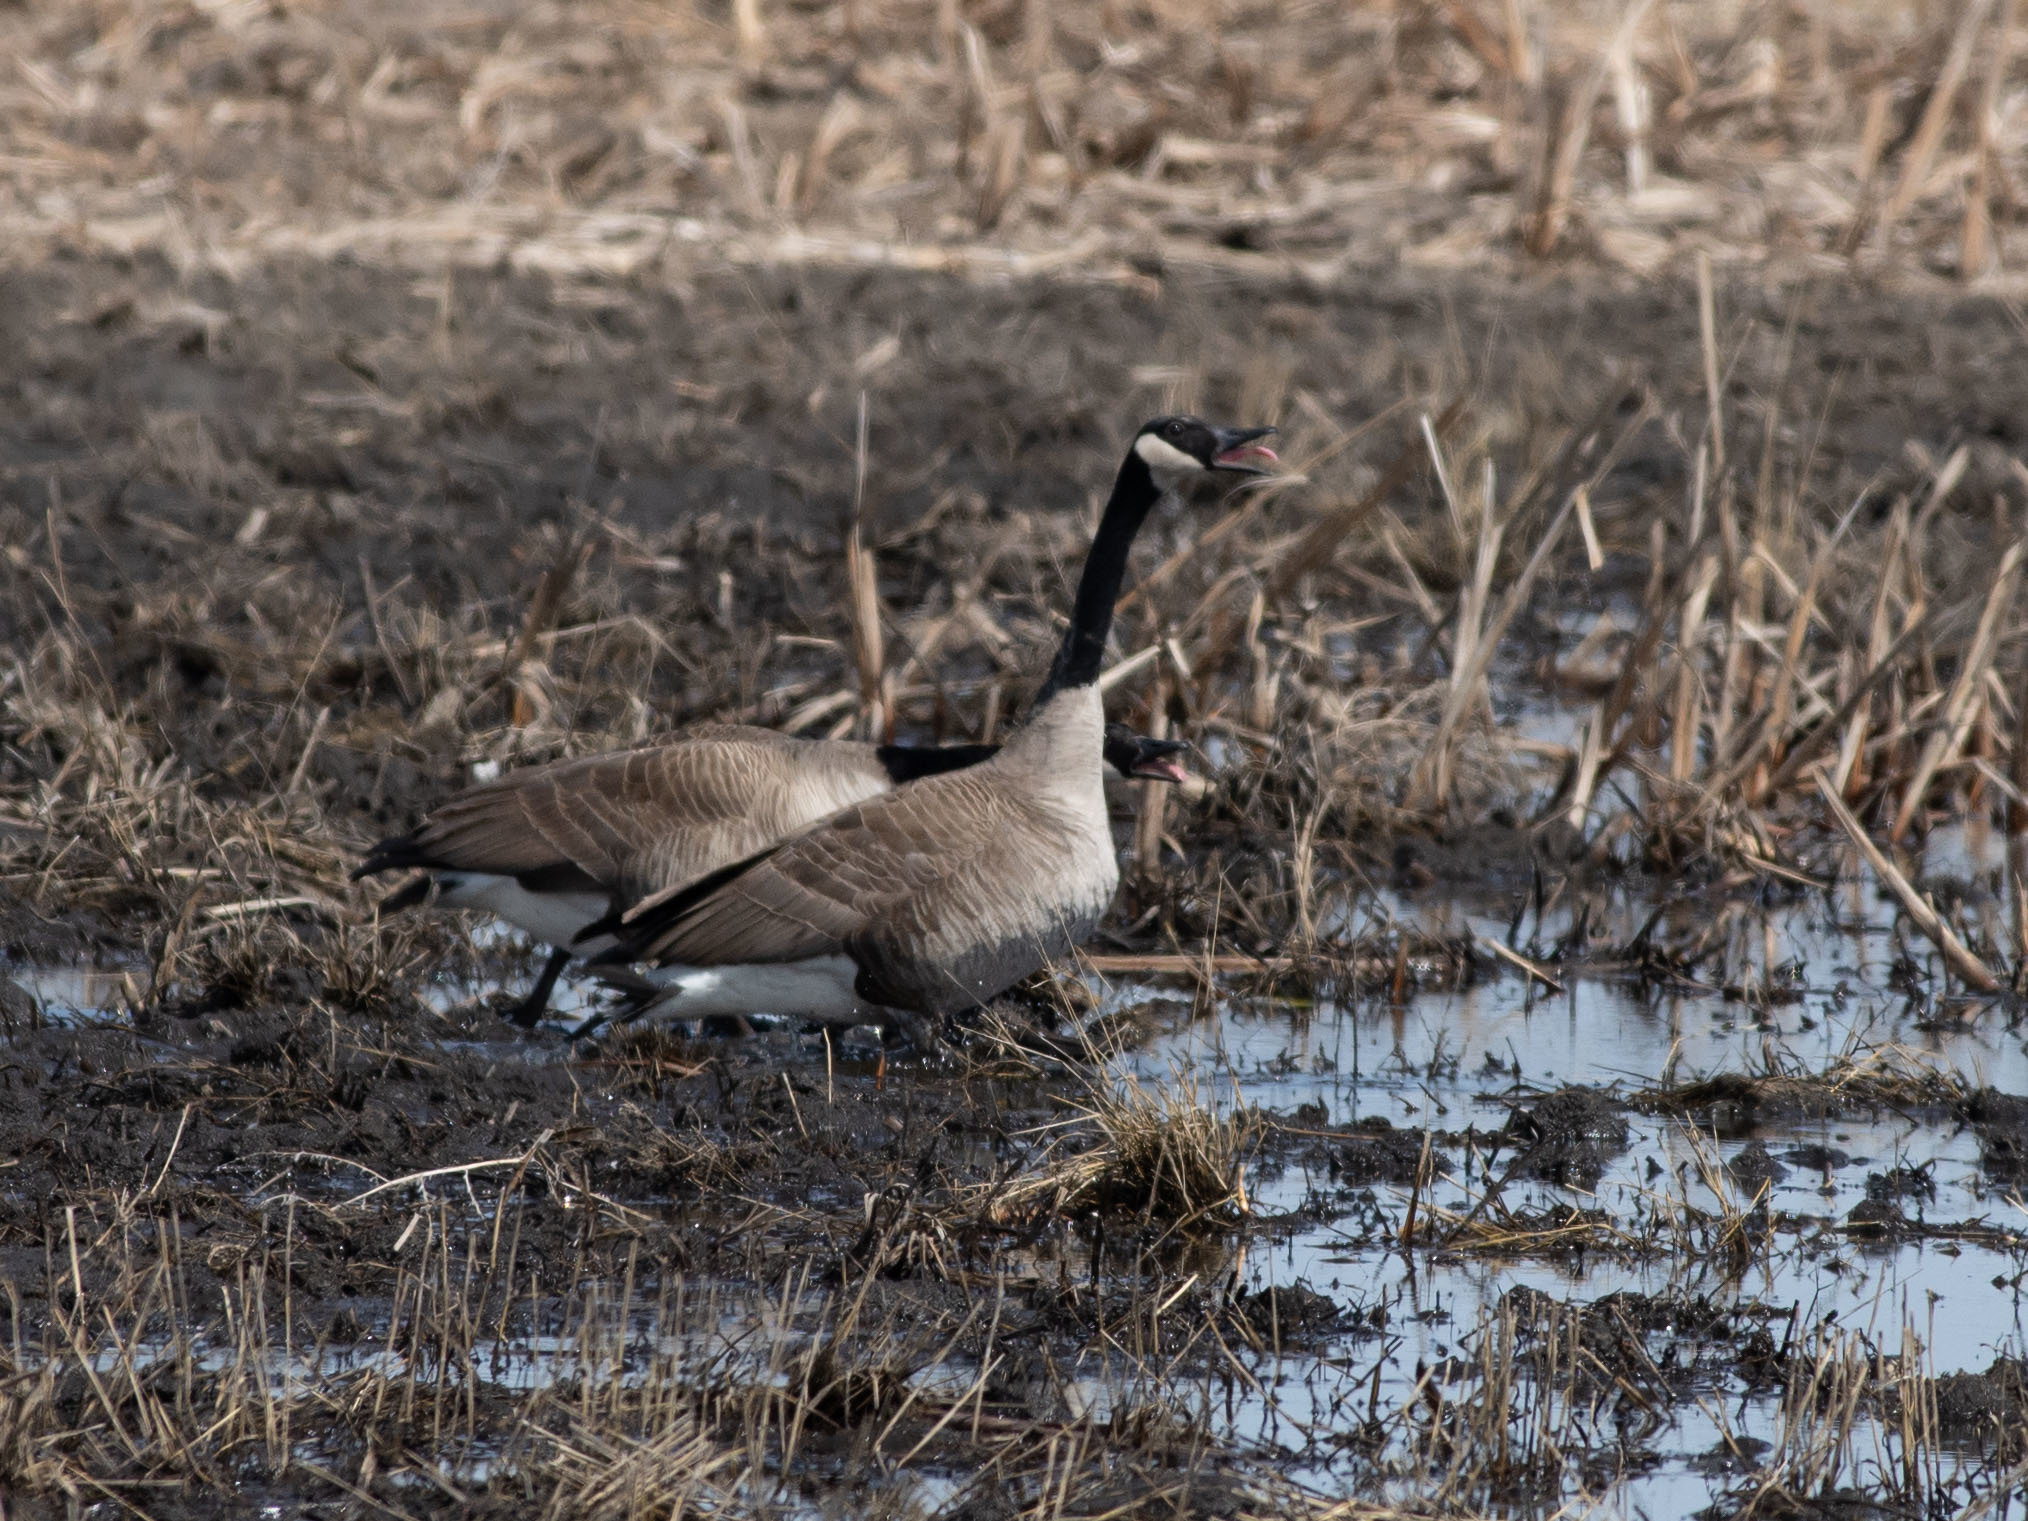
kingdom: Animalia
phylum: Chordata
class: Aves
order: Anseriformes
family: Anatidae
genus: Branta
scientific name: Branta canadensis
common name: Canada goose
